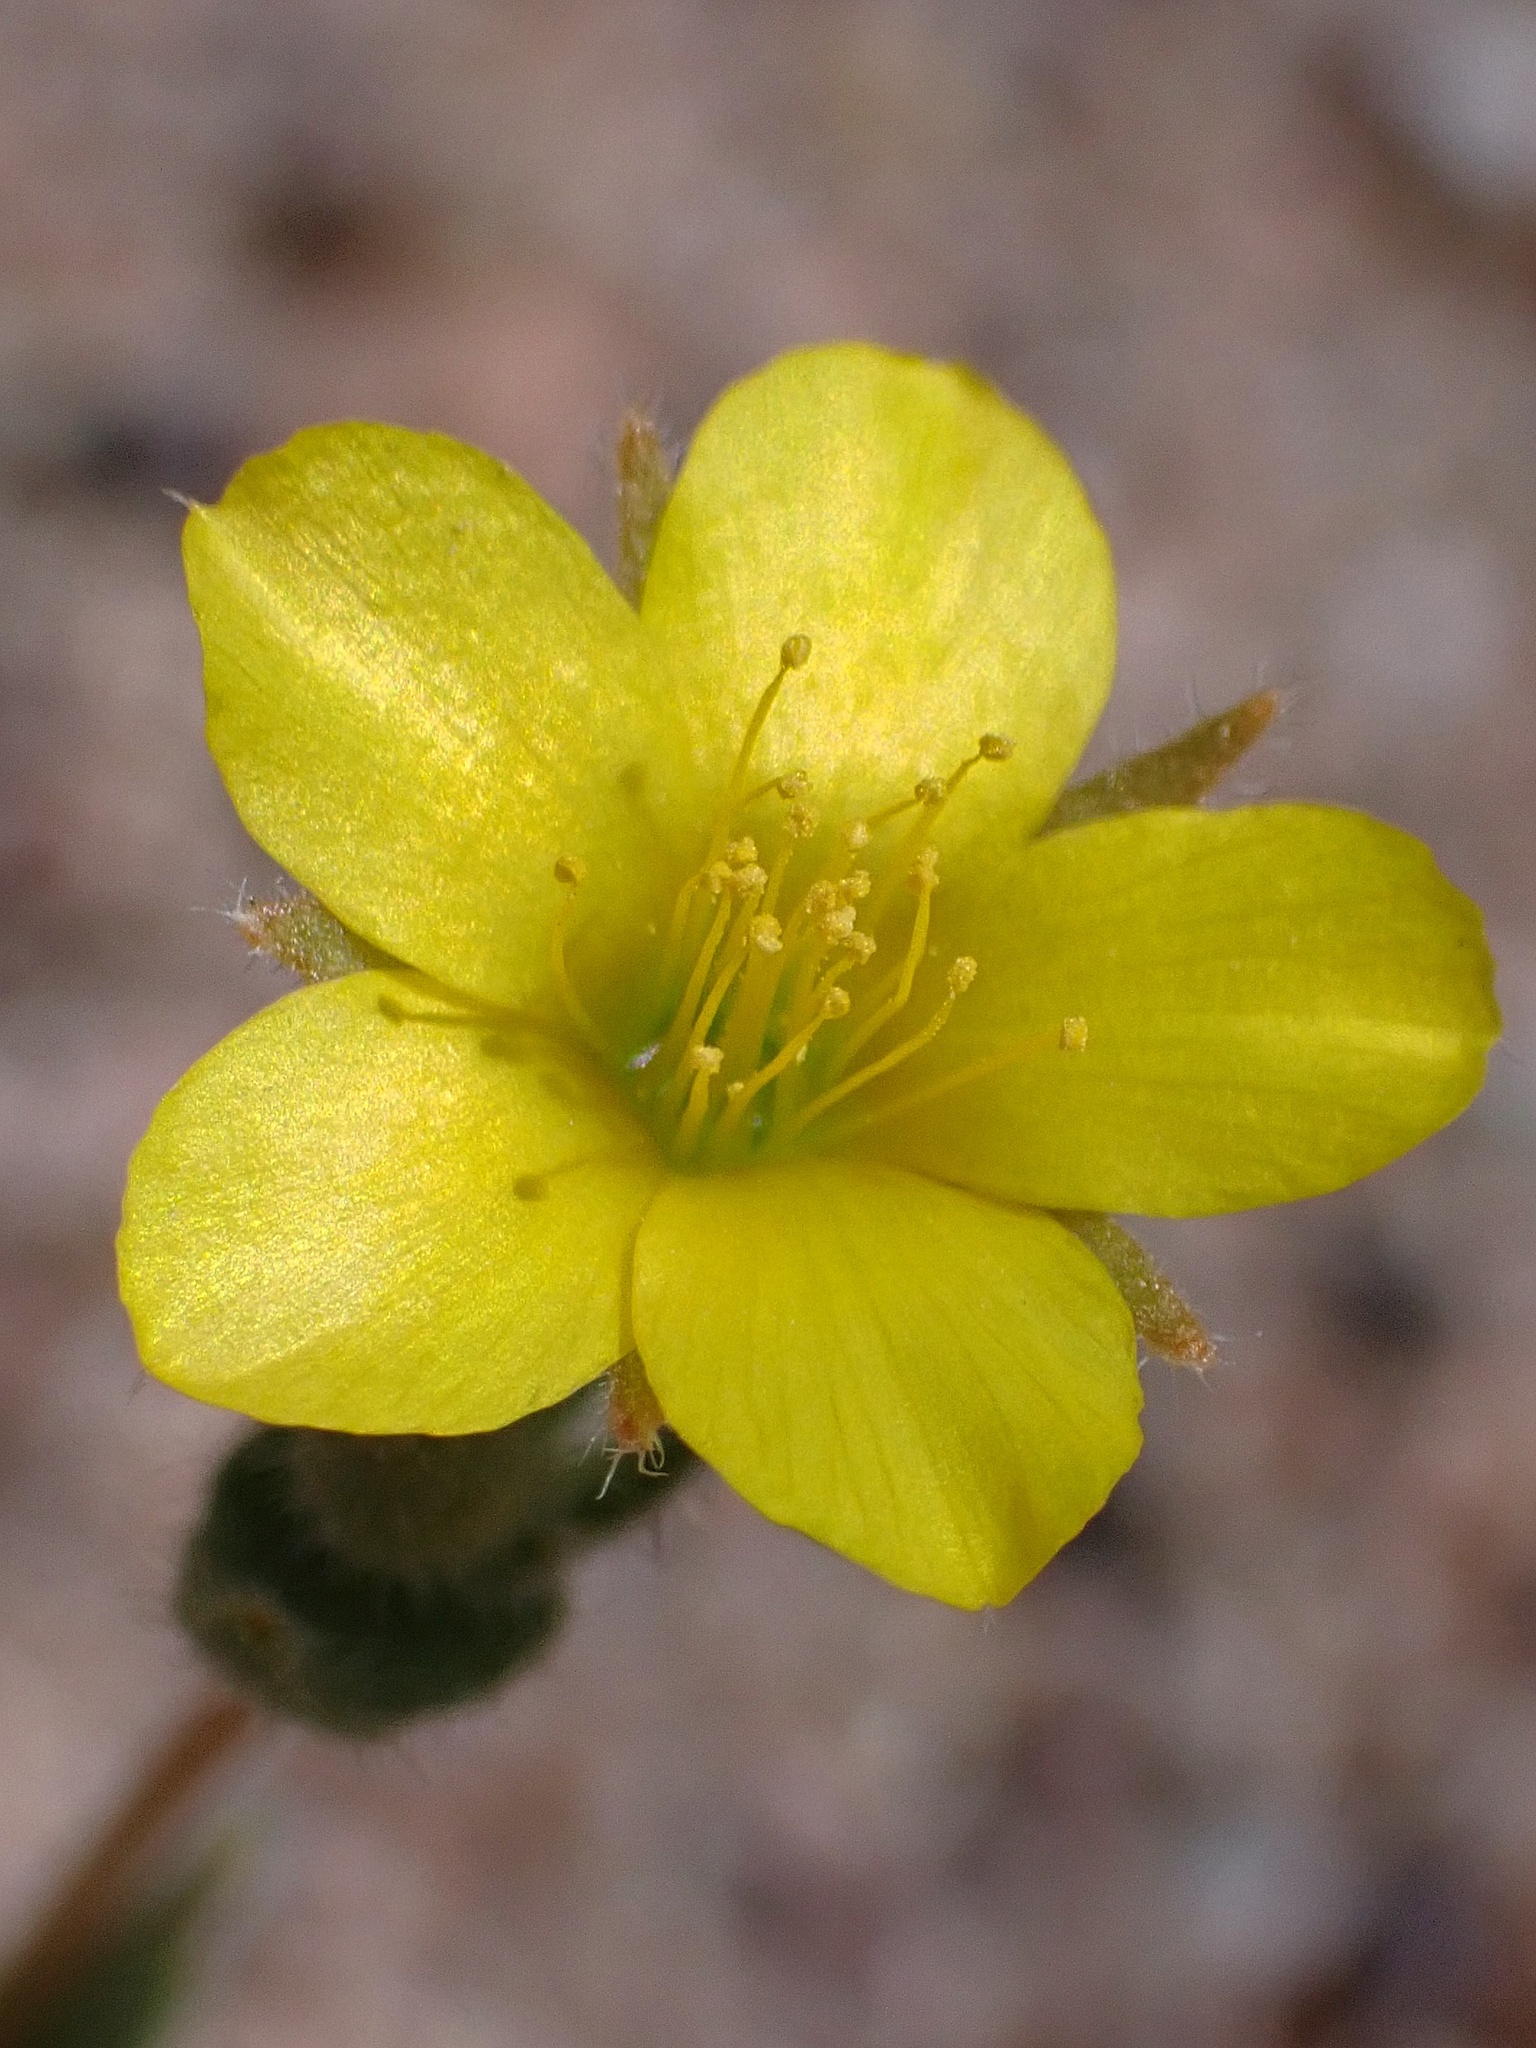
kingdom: Plantae
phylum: Tracheophyta
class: Magnoliopsida
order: Cornales
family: Loasaceae
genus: Mentzelia
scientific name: Mentzelia albicaulis
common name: White-stem blazingstar
